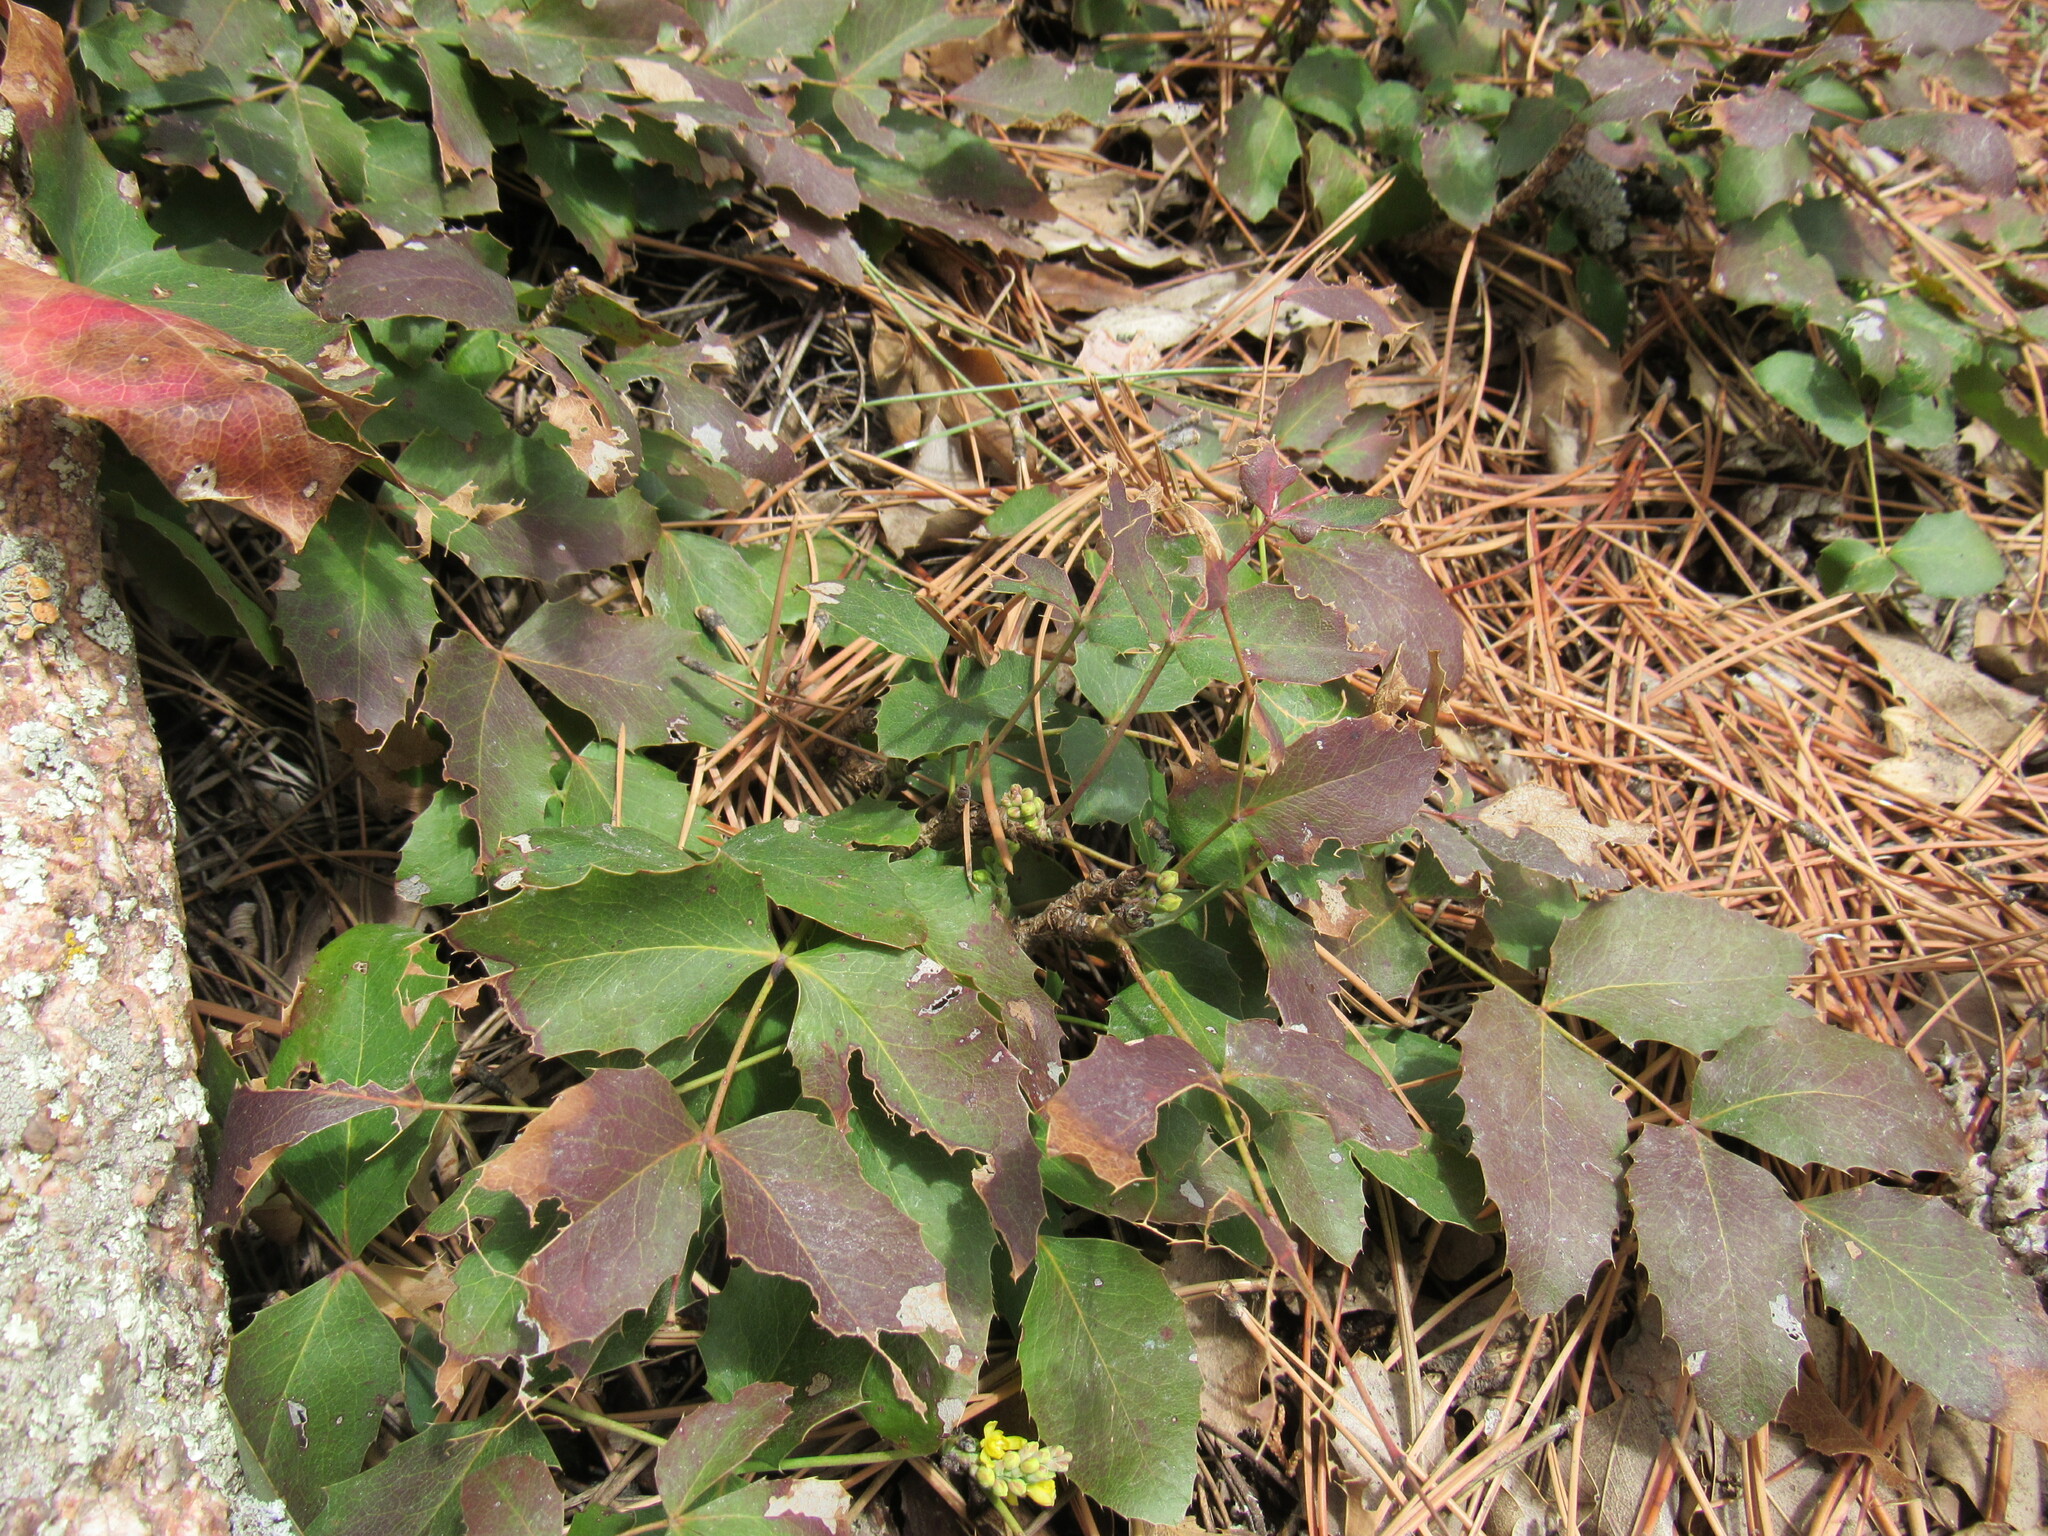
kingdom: Plantae
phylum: Tracheophyta
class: Magnoliopsida
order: Ranunculales
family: Berberidaceae
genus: Mahonia
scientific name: Mahonia repens
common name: Creeping oregon-grape
